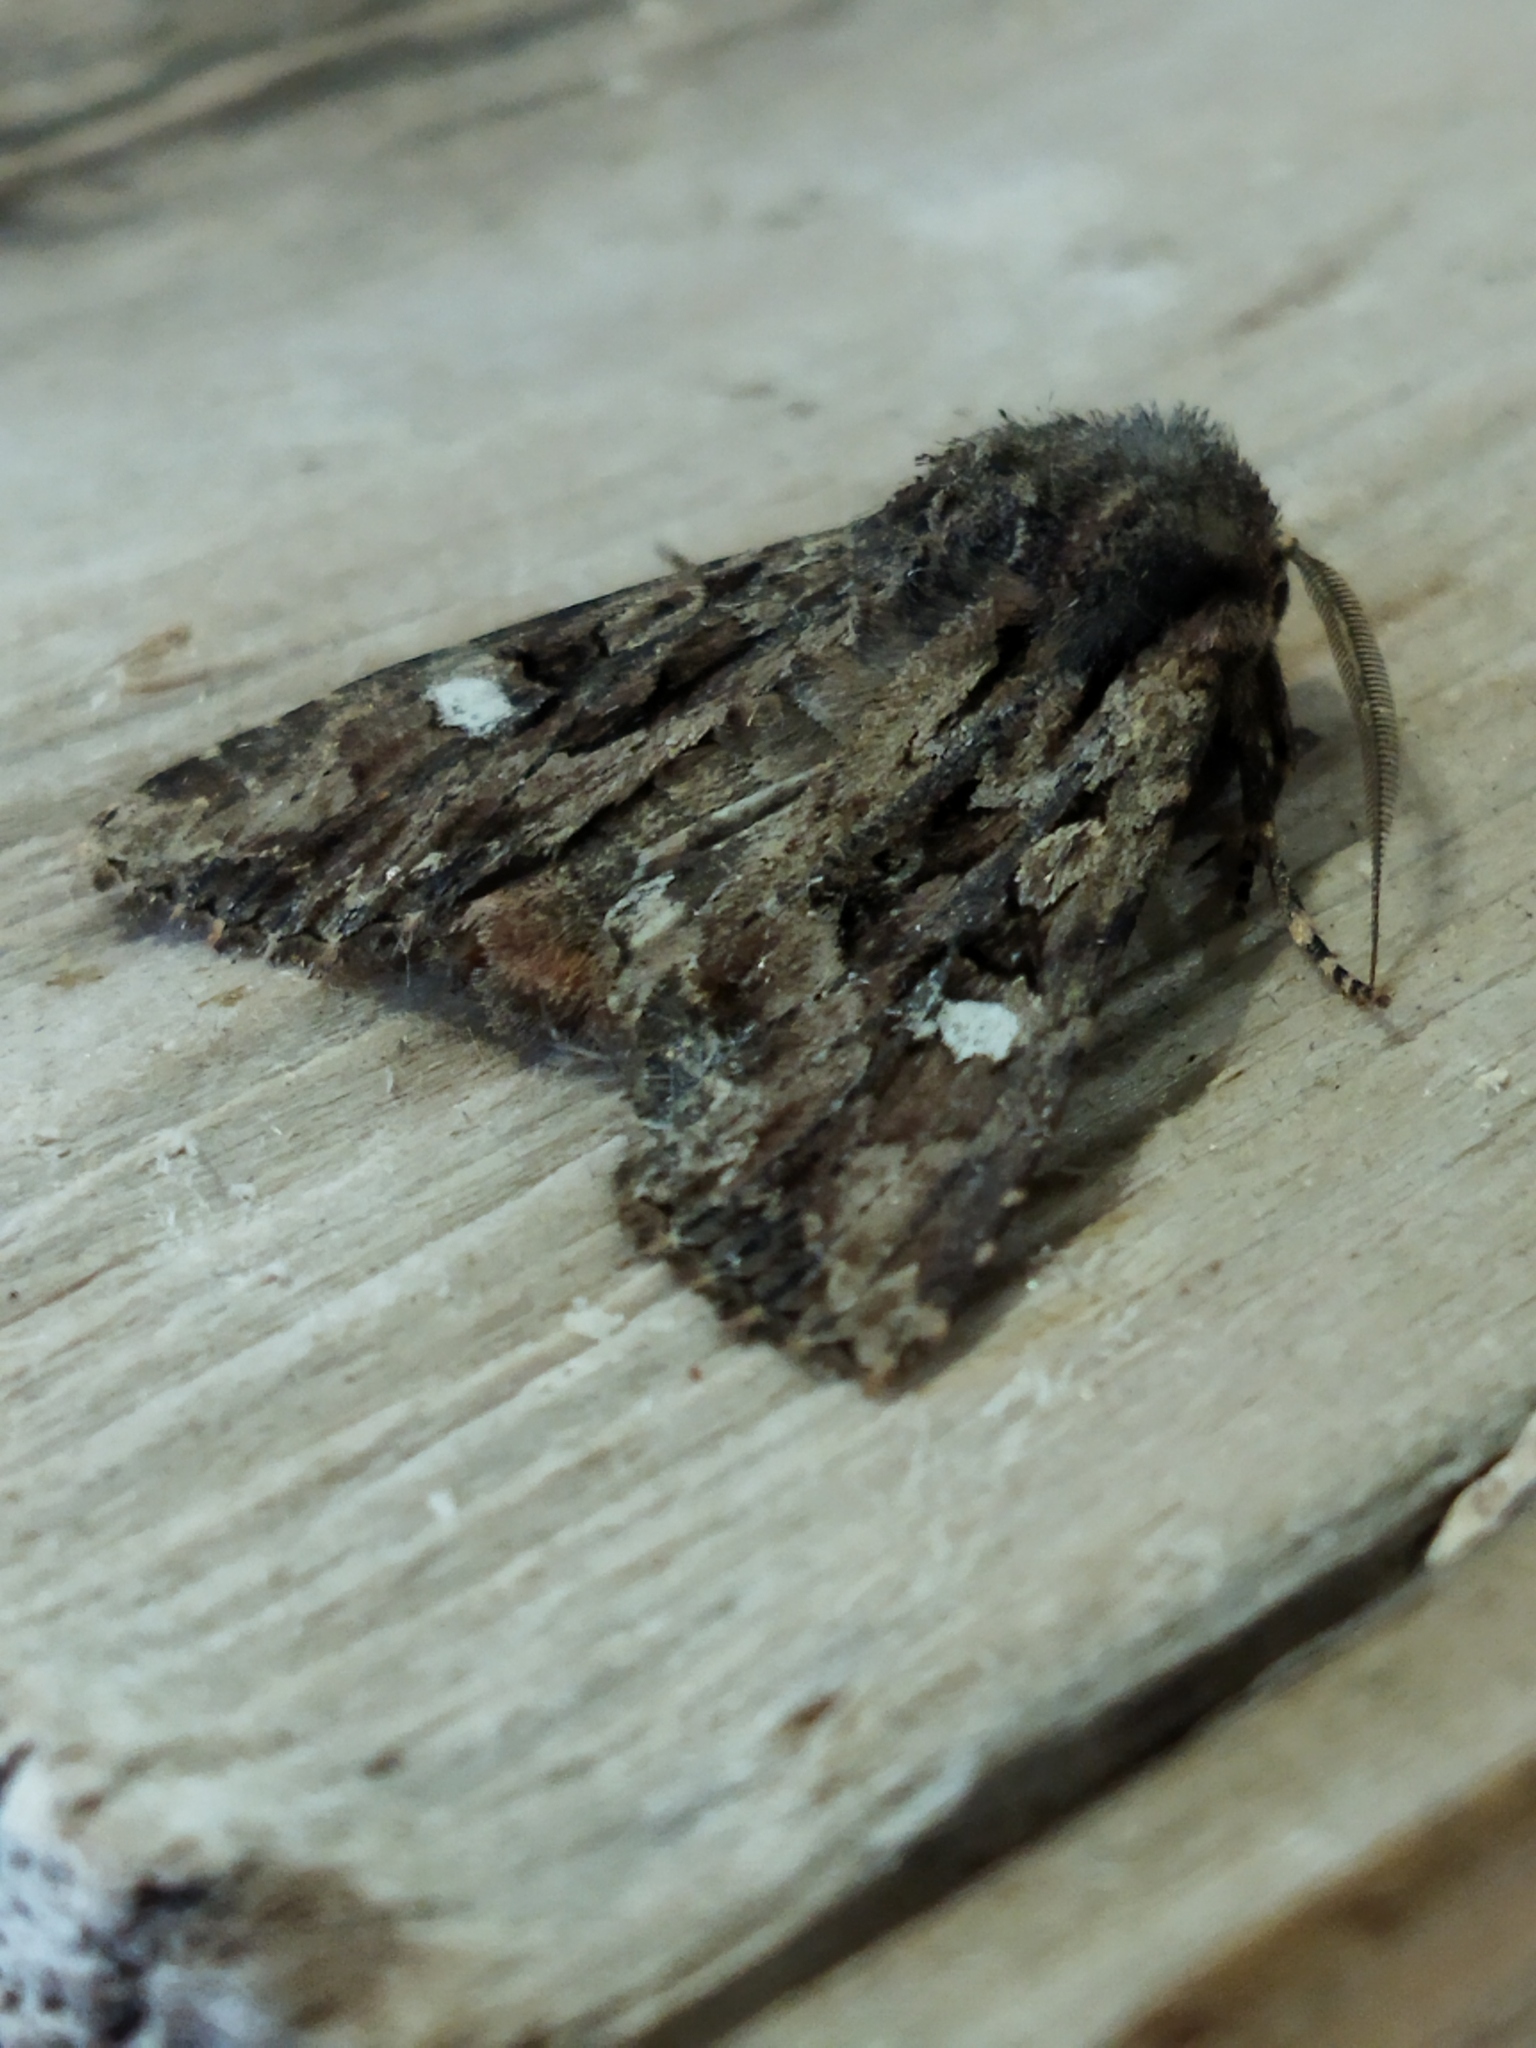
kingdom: Animalia
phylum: Arthropoda
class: Insecta
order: Lepidoptera
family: Noctuidae
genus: Polymixis
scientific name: Polymixis trisignata
